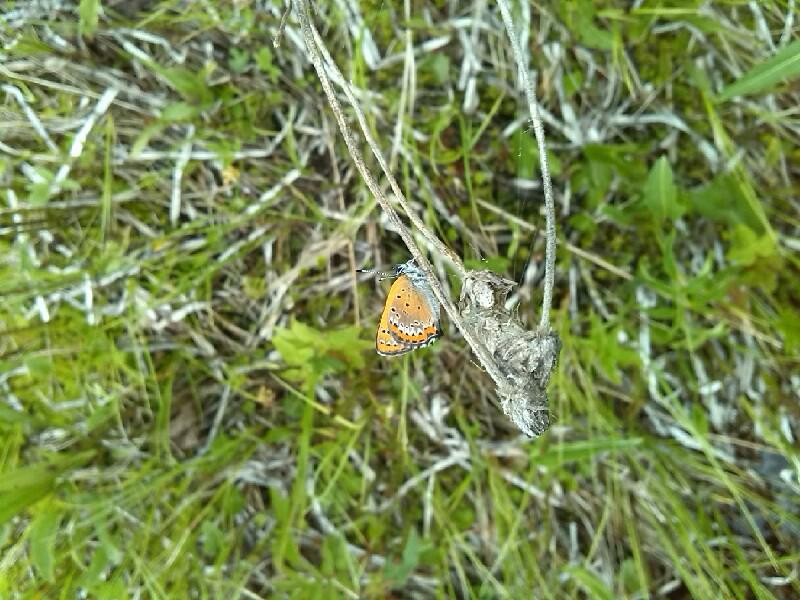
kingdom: Animalia
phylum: Arthropoda
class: Insecta
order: Lepidoptera
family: Lycaenidae
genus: Helleia
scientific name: Helleia helle
